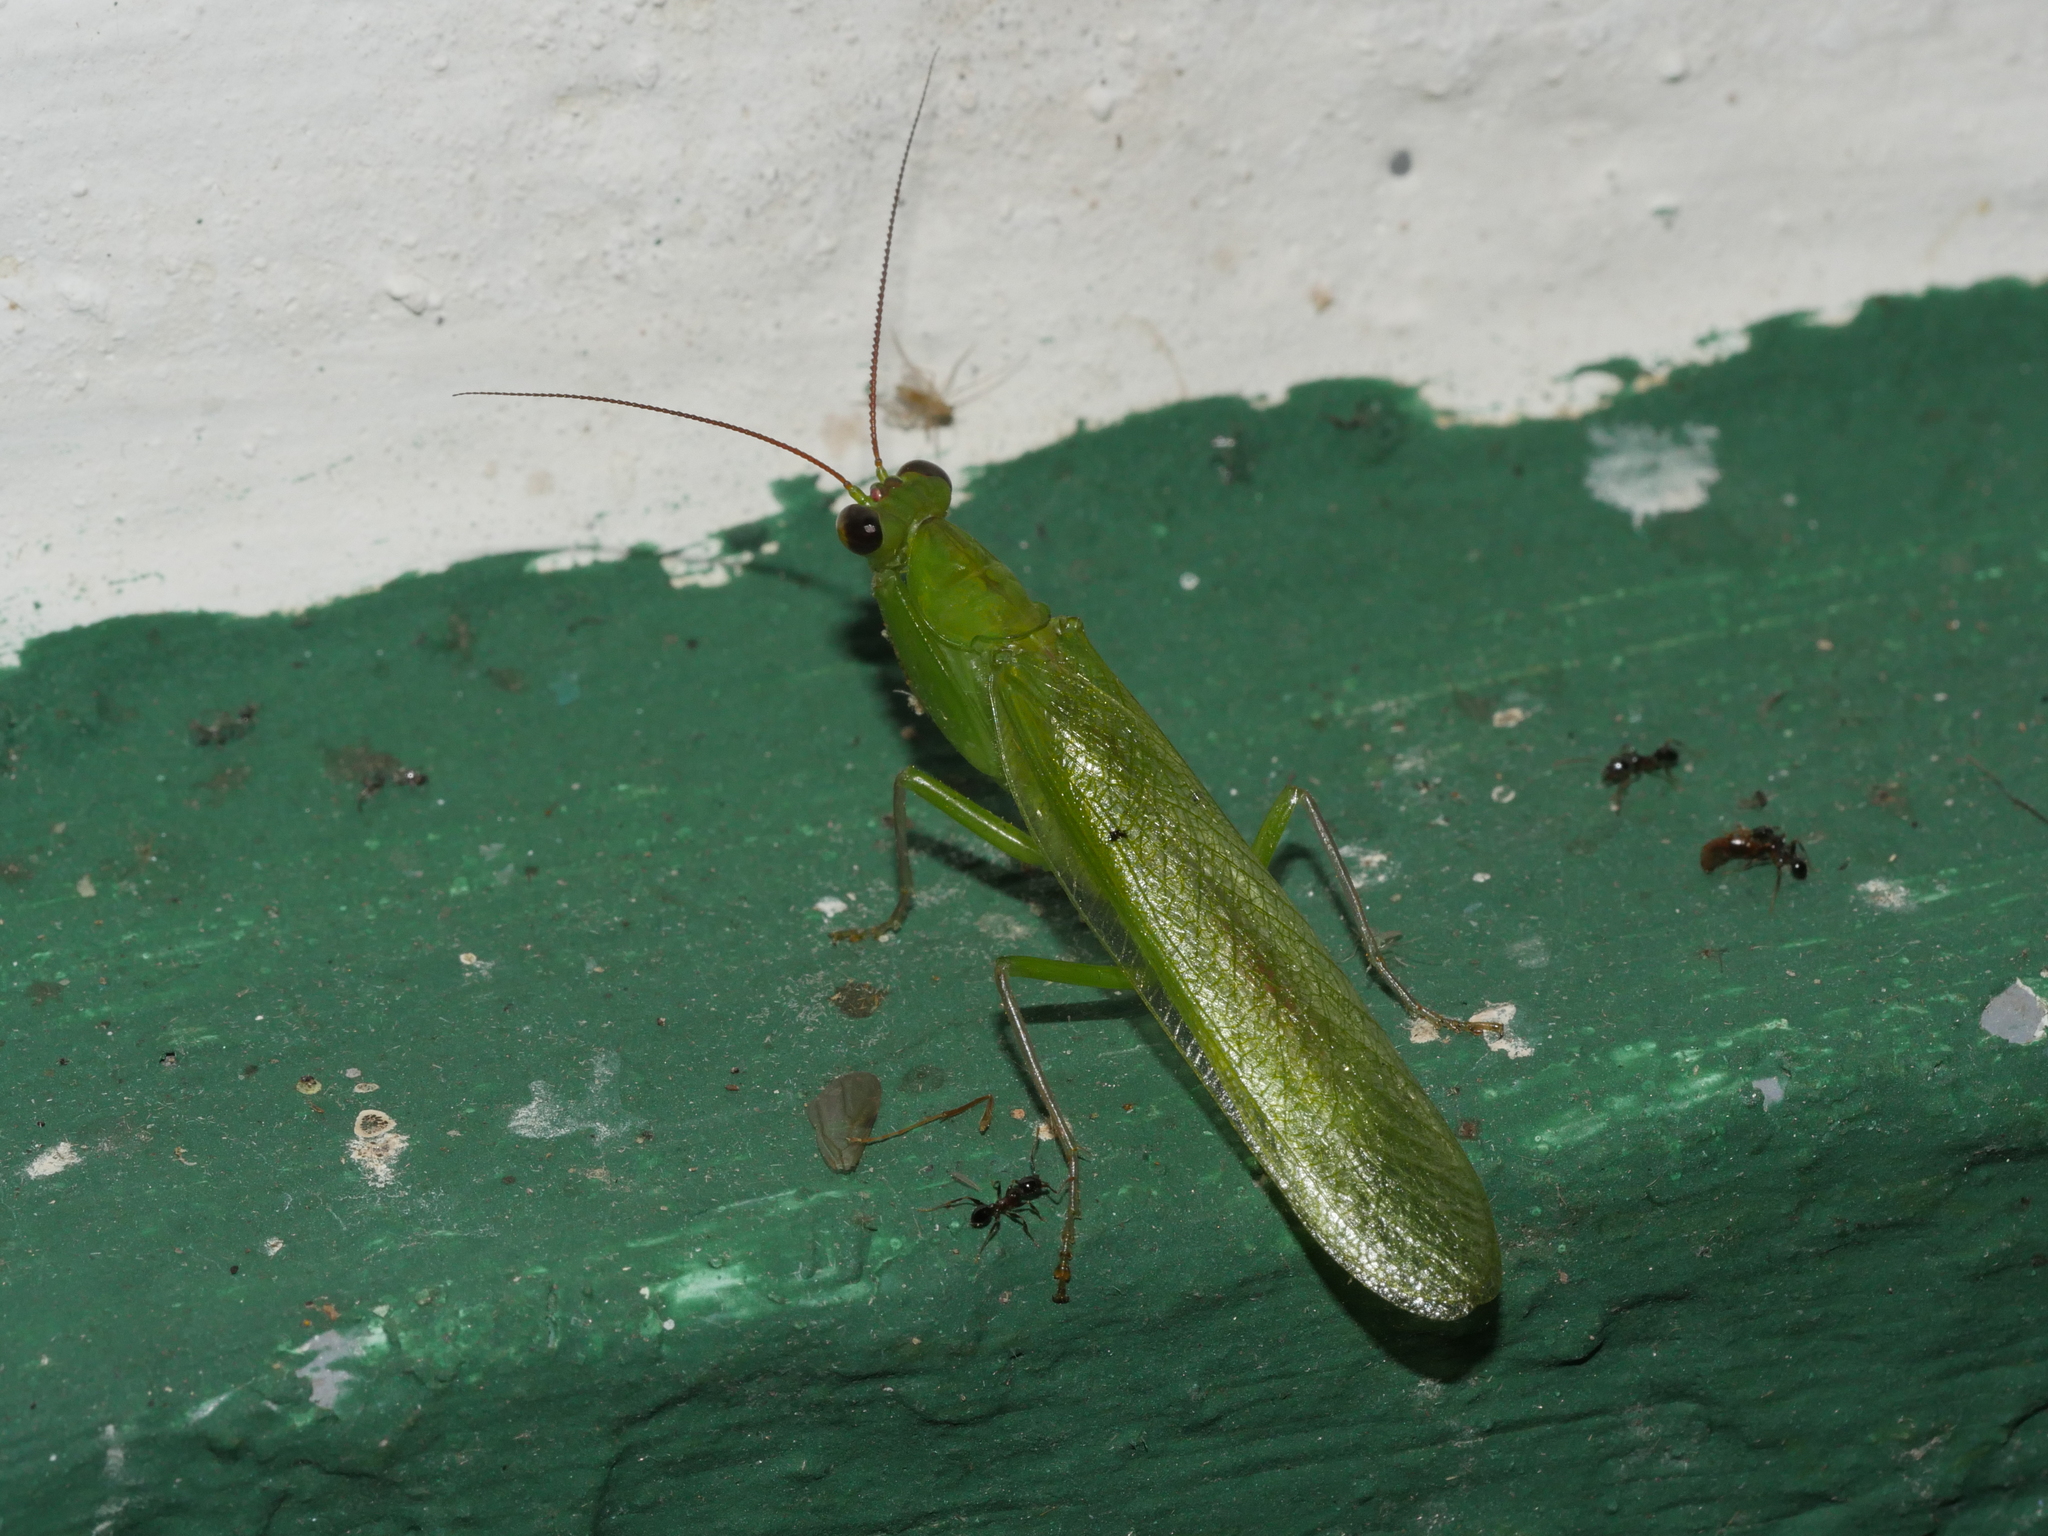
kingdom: Animalia
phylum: Arthropoda
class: Insecta
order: Mantodea
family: Hymenopodidae
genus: Chloroharpax
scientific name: Chloroharpax modesta
